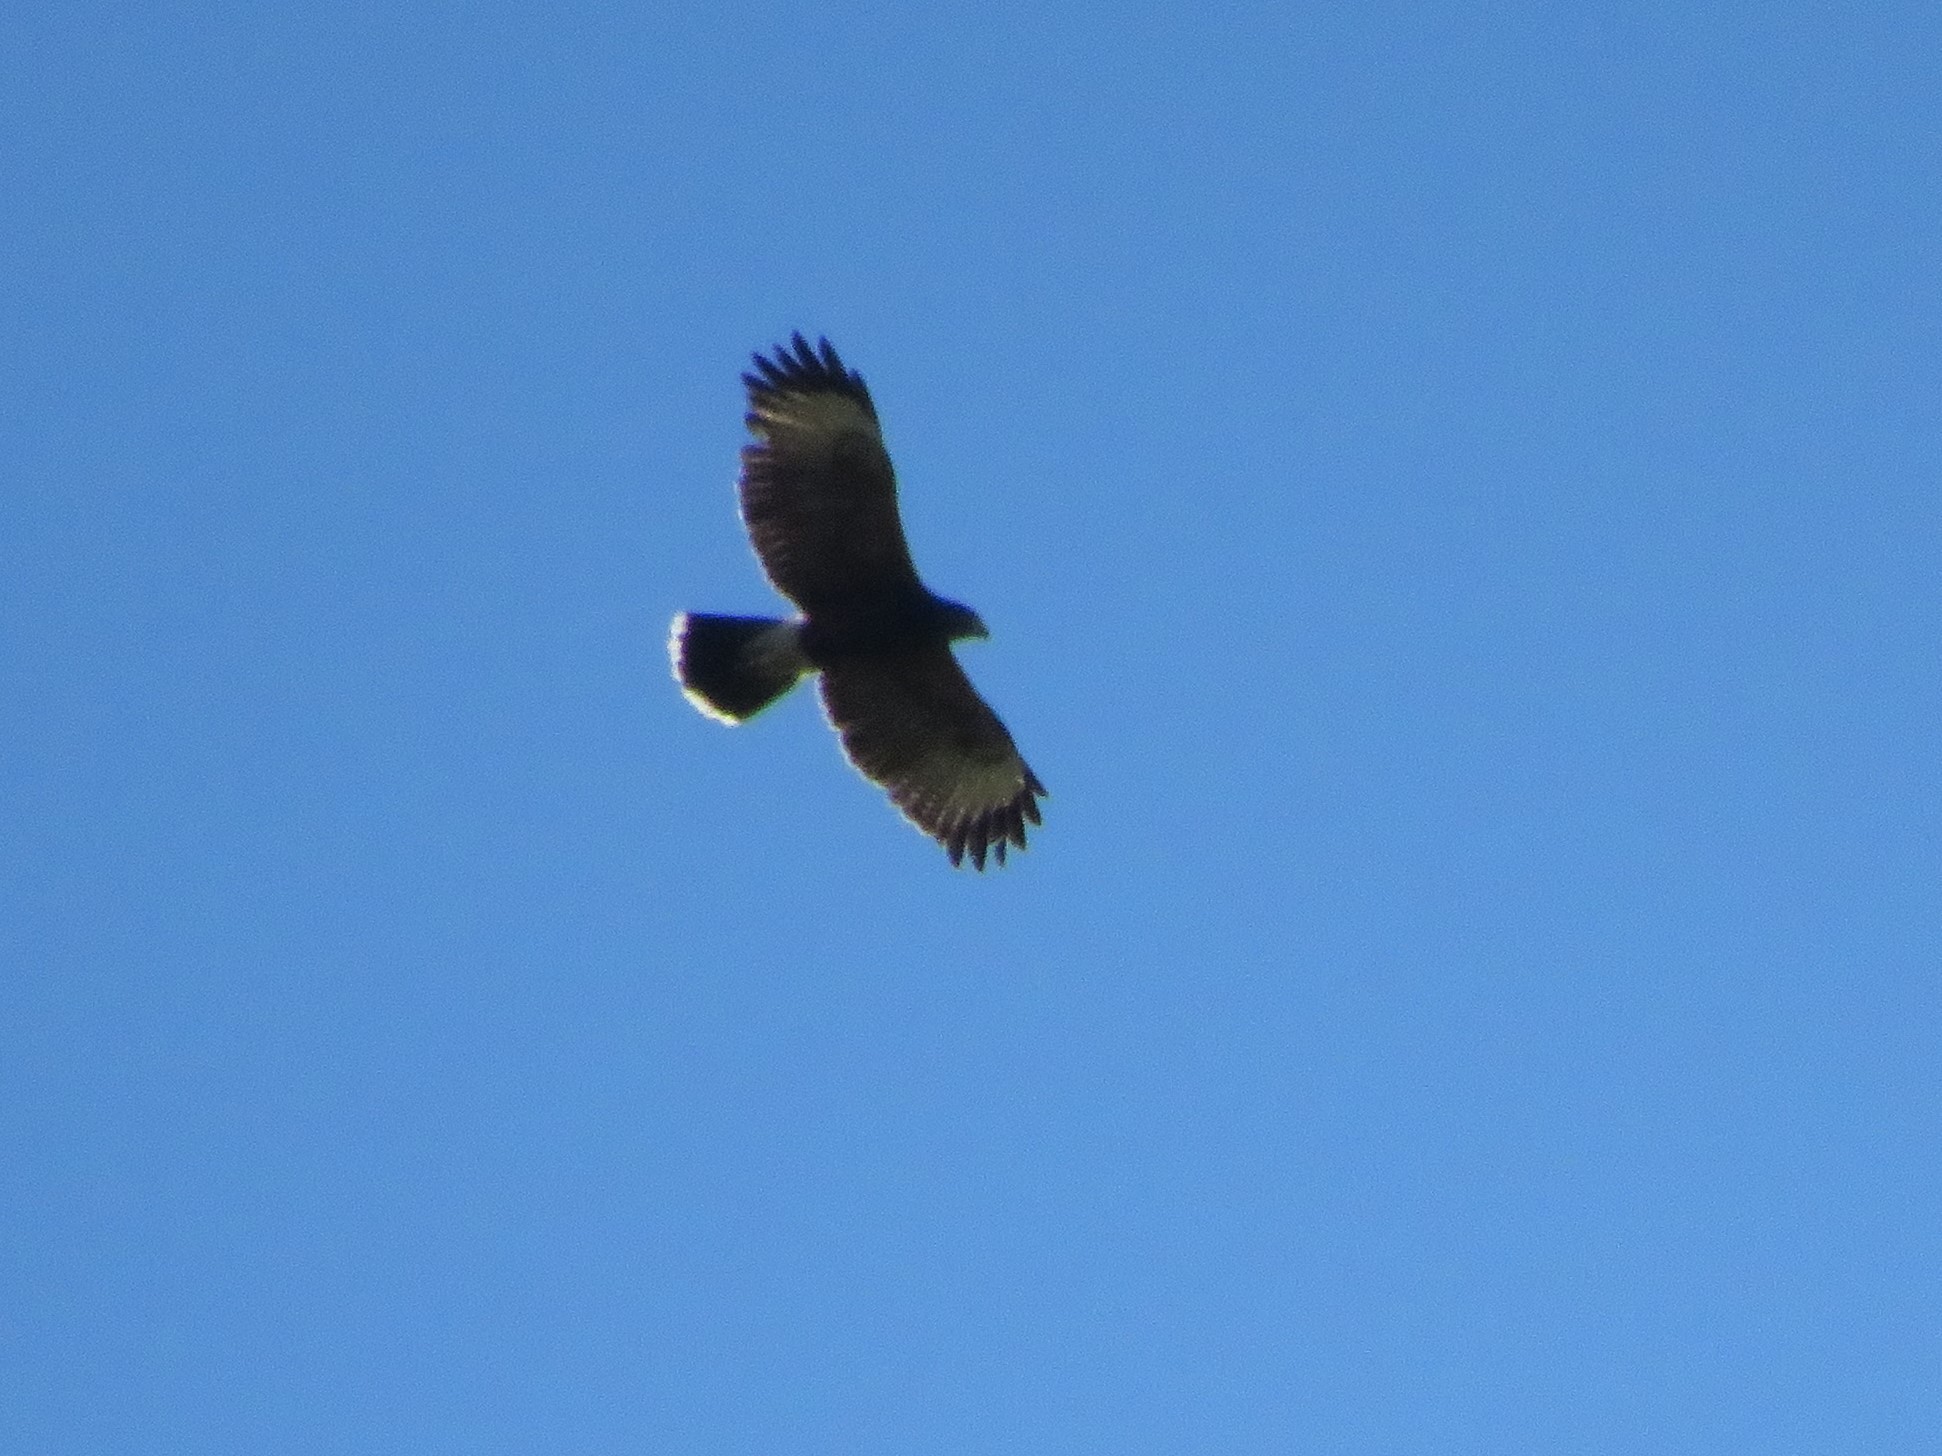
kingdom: Animalia
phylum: Chordata
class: Aves
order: Accipitriformes
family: Accipitridae
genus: Parabuteo
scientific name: Parabuteo unicinctus
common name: Harris's hawk
